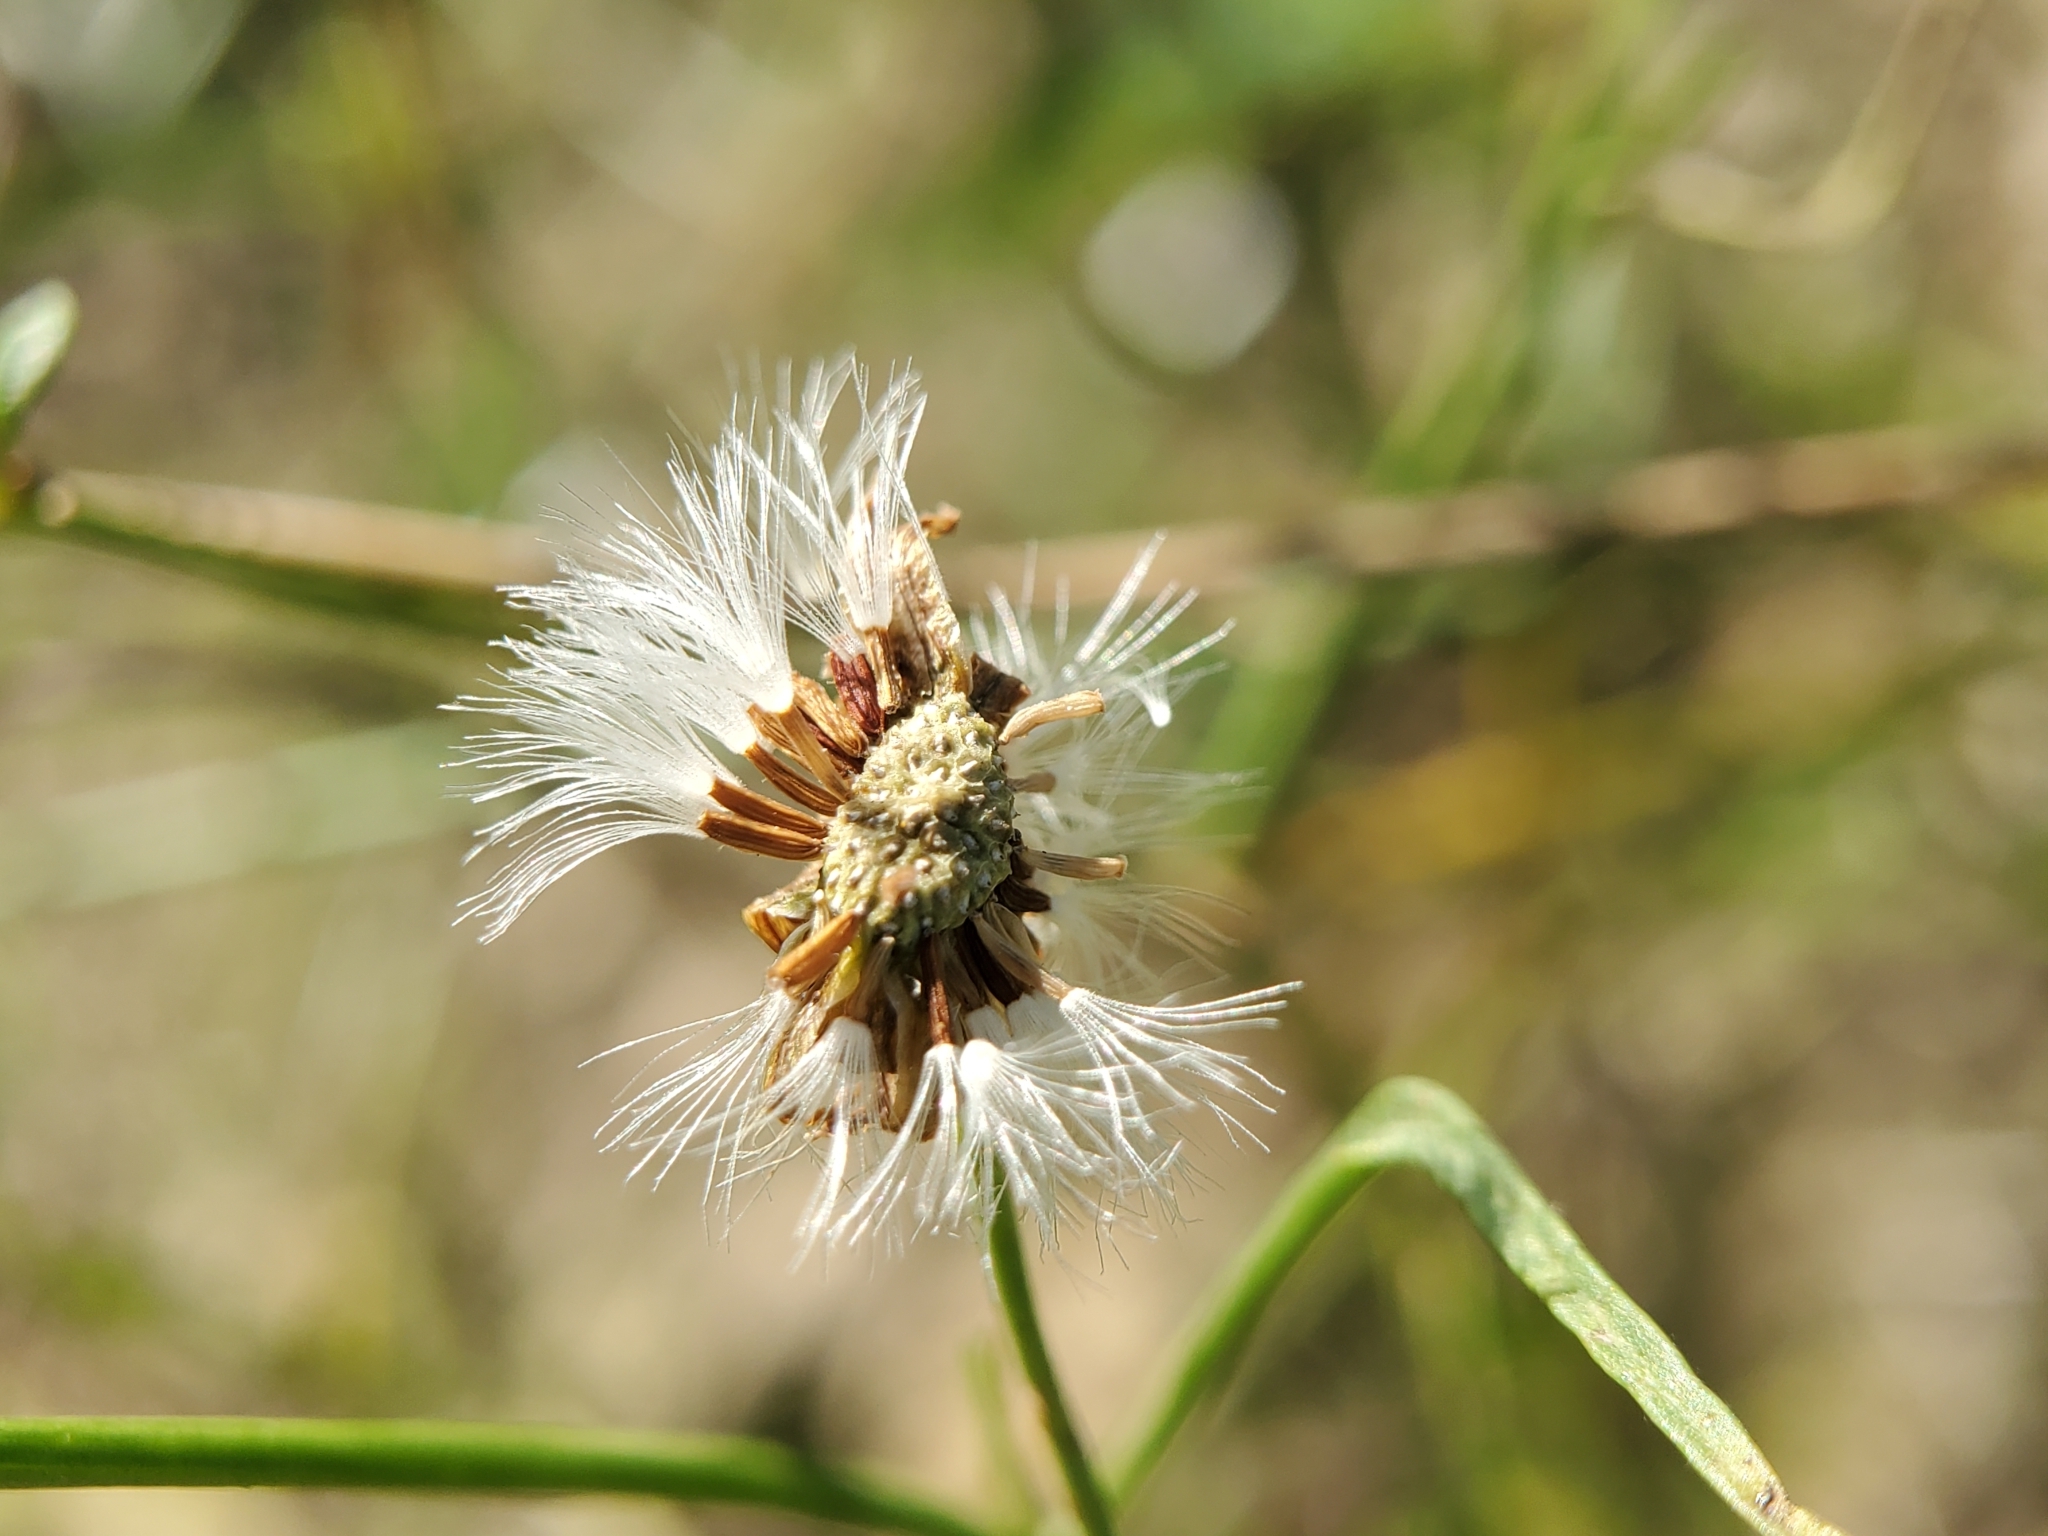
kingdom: Plantae
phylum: Tracheophyta
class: Magnoliopsida
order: Asterales
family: Asteraceae
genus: Malacothrix
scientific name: Malacothrix saxatilis
